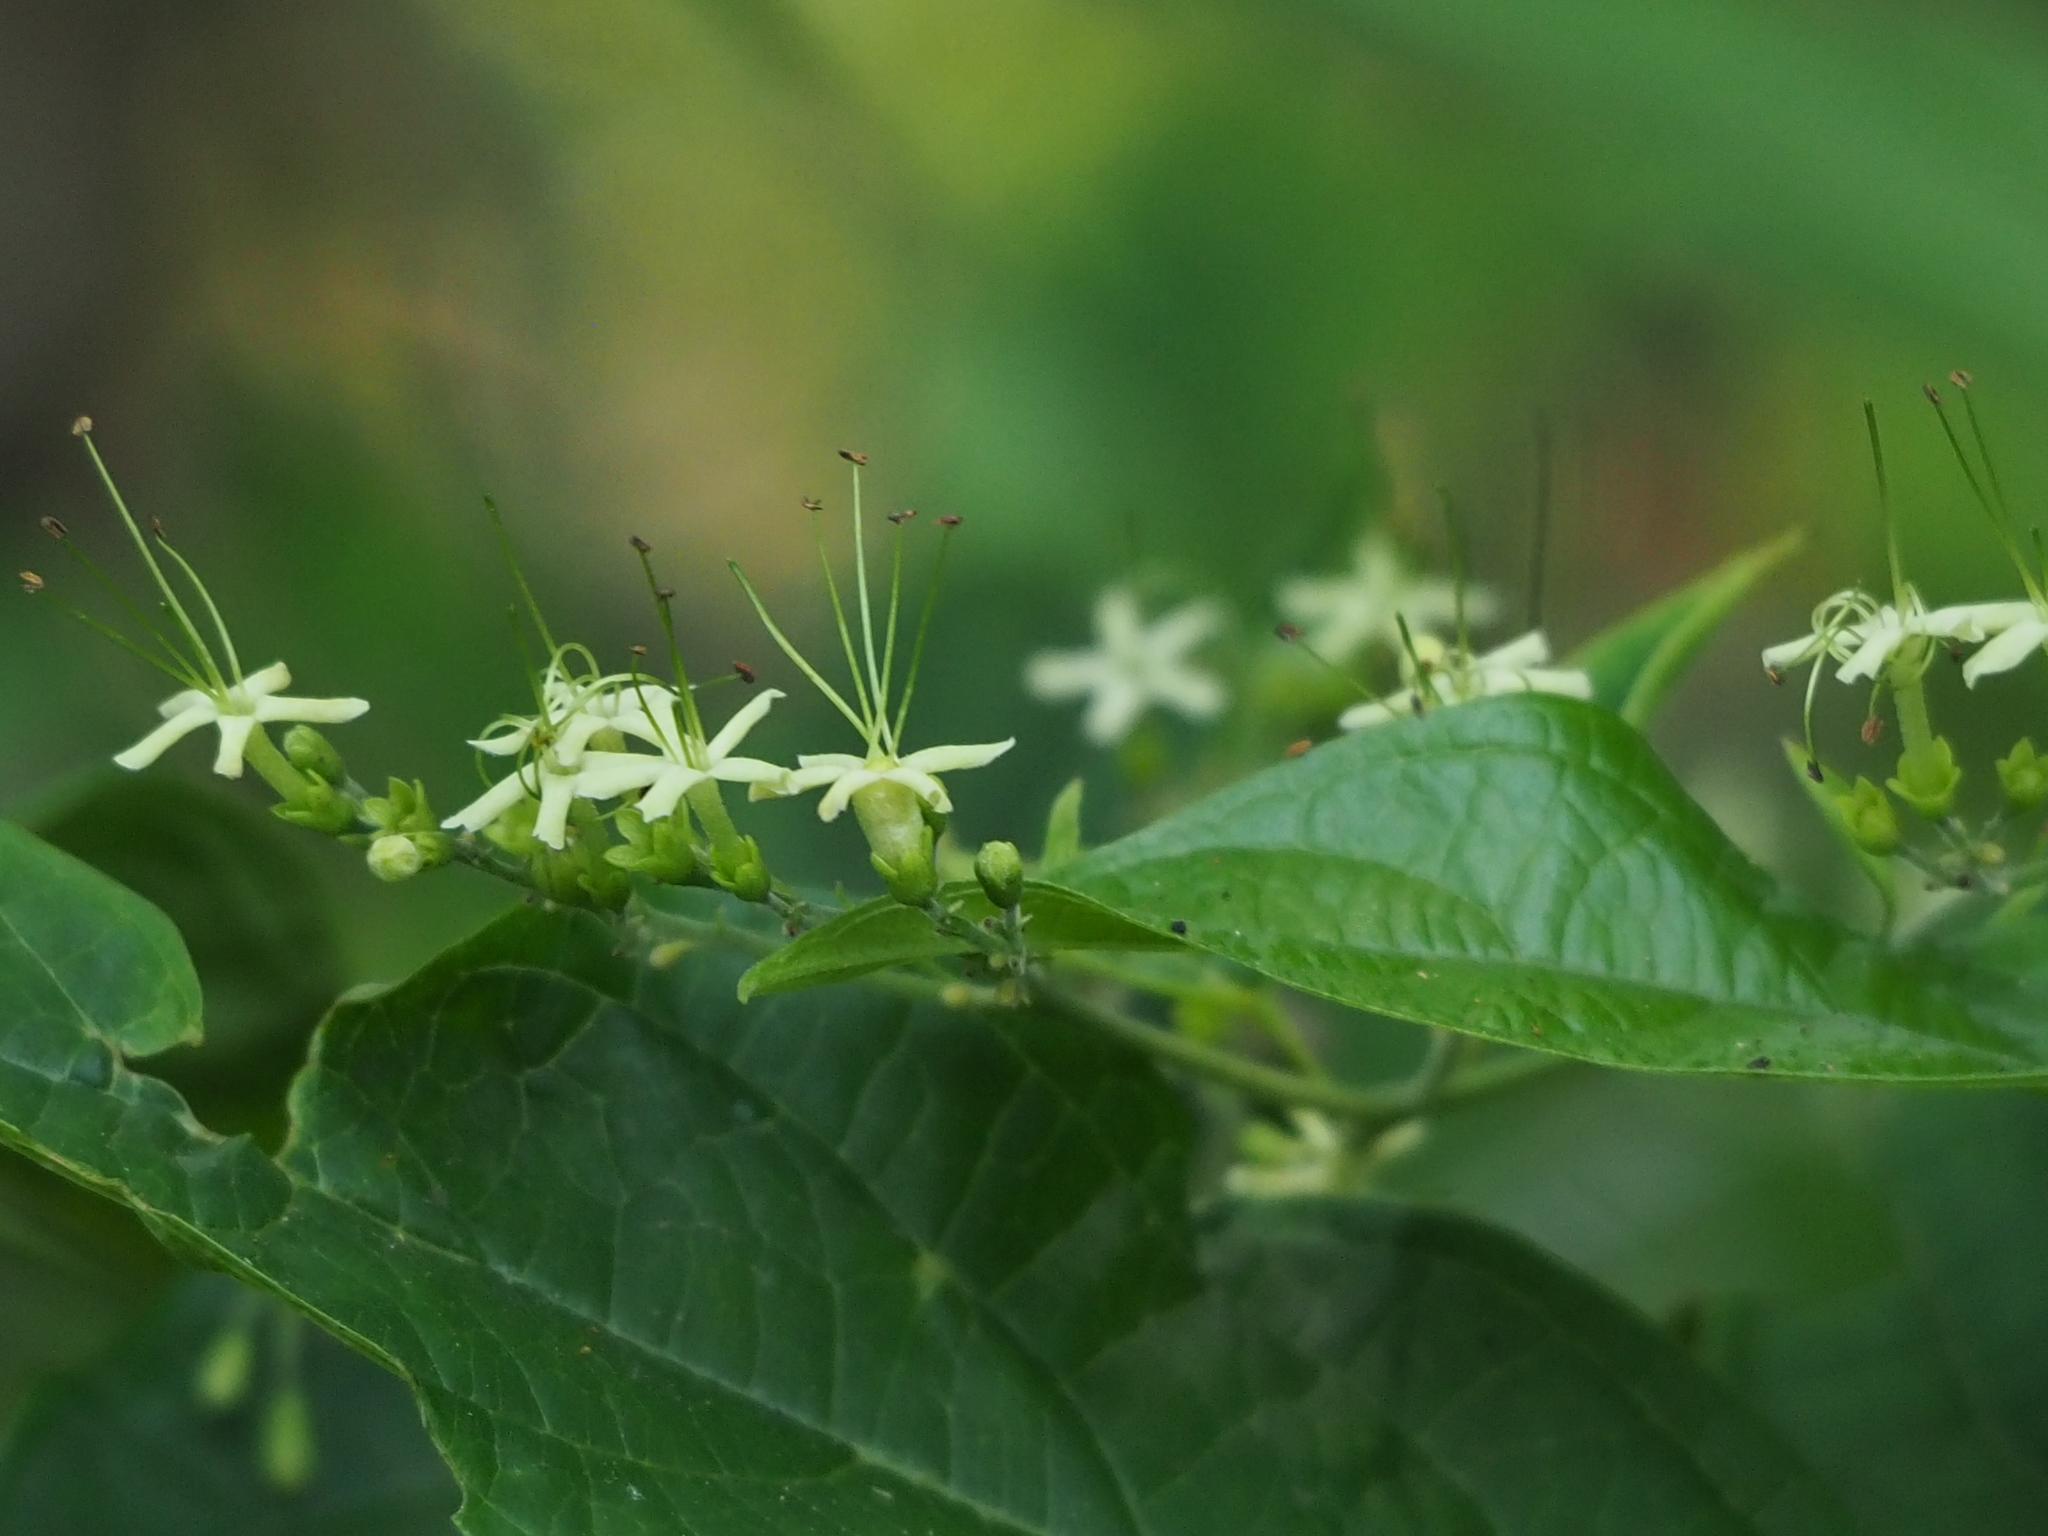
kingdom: Plantae
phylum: Tracheophyta
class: Magnoliopsida
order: Lamiales
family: Lamiaceae
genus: Clerodendrum
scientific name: Clerodendrum cyrtophyllum
